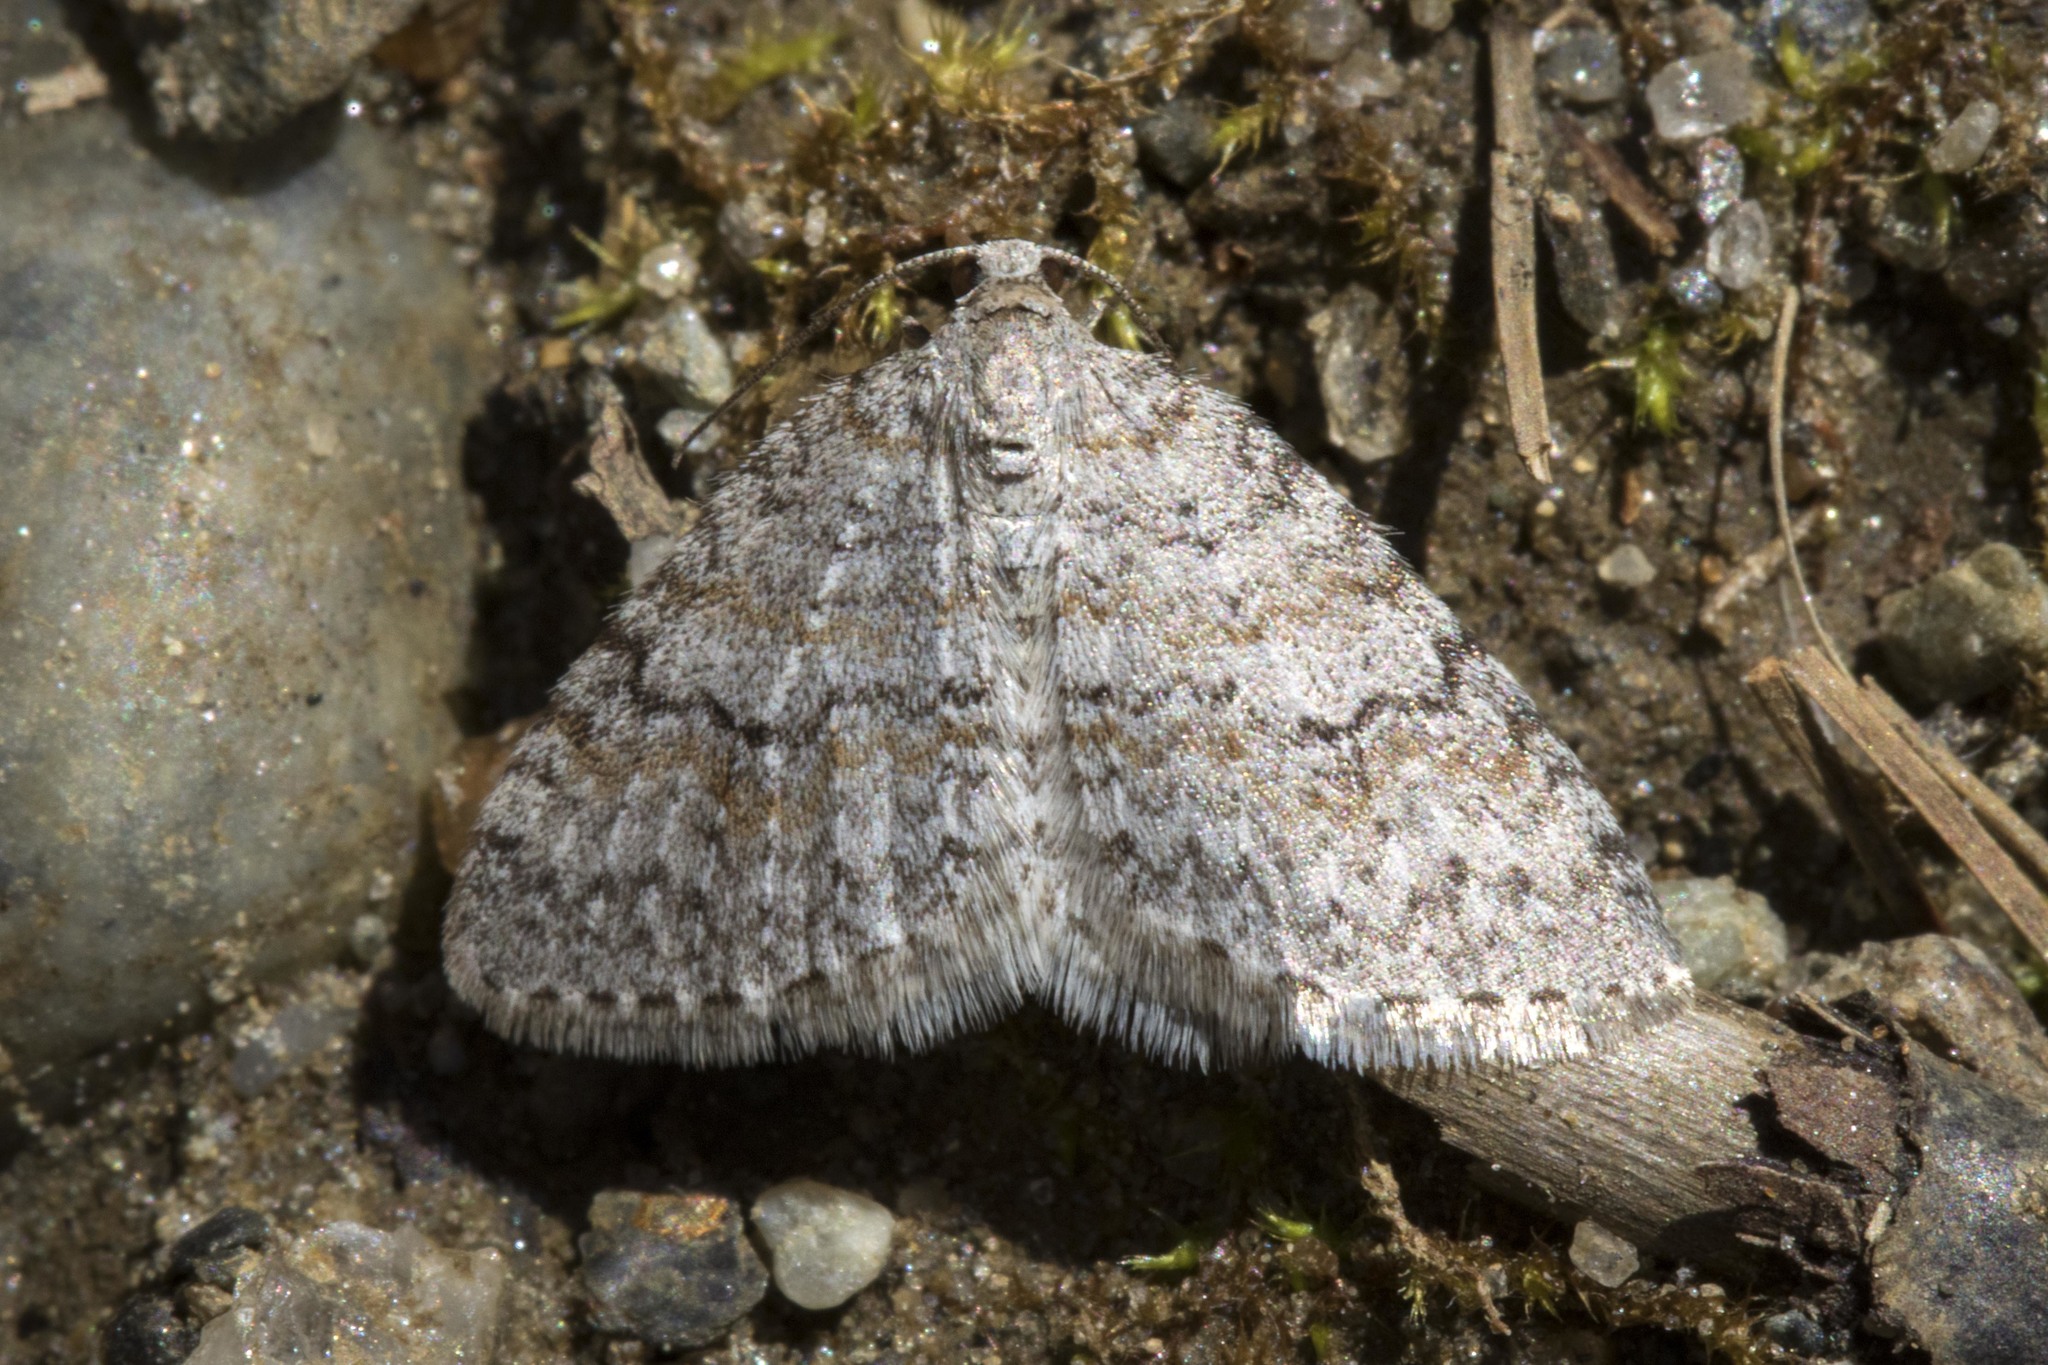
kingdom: Animalia
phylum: Arthropoda
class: Insecta
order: Lepidoptera
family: Geometridae
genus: Venusia
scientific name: Venusia comptaria
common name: Brown-shaded carpet
